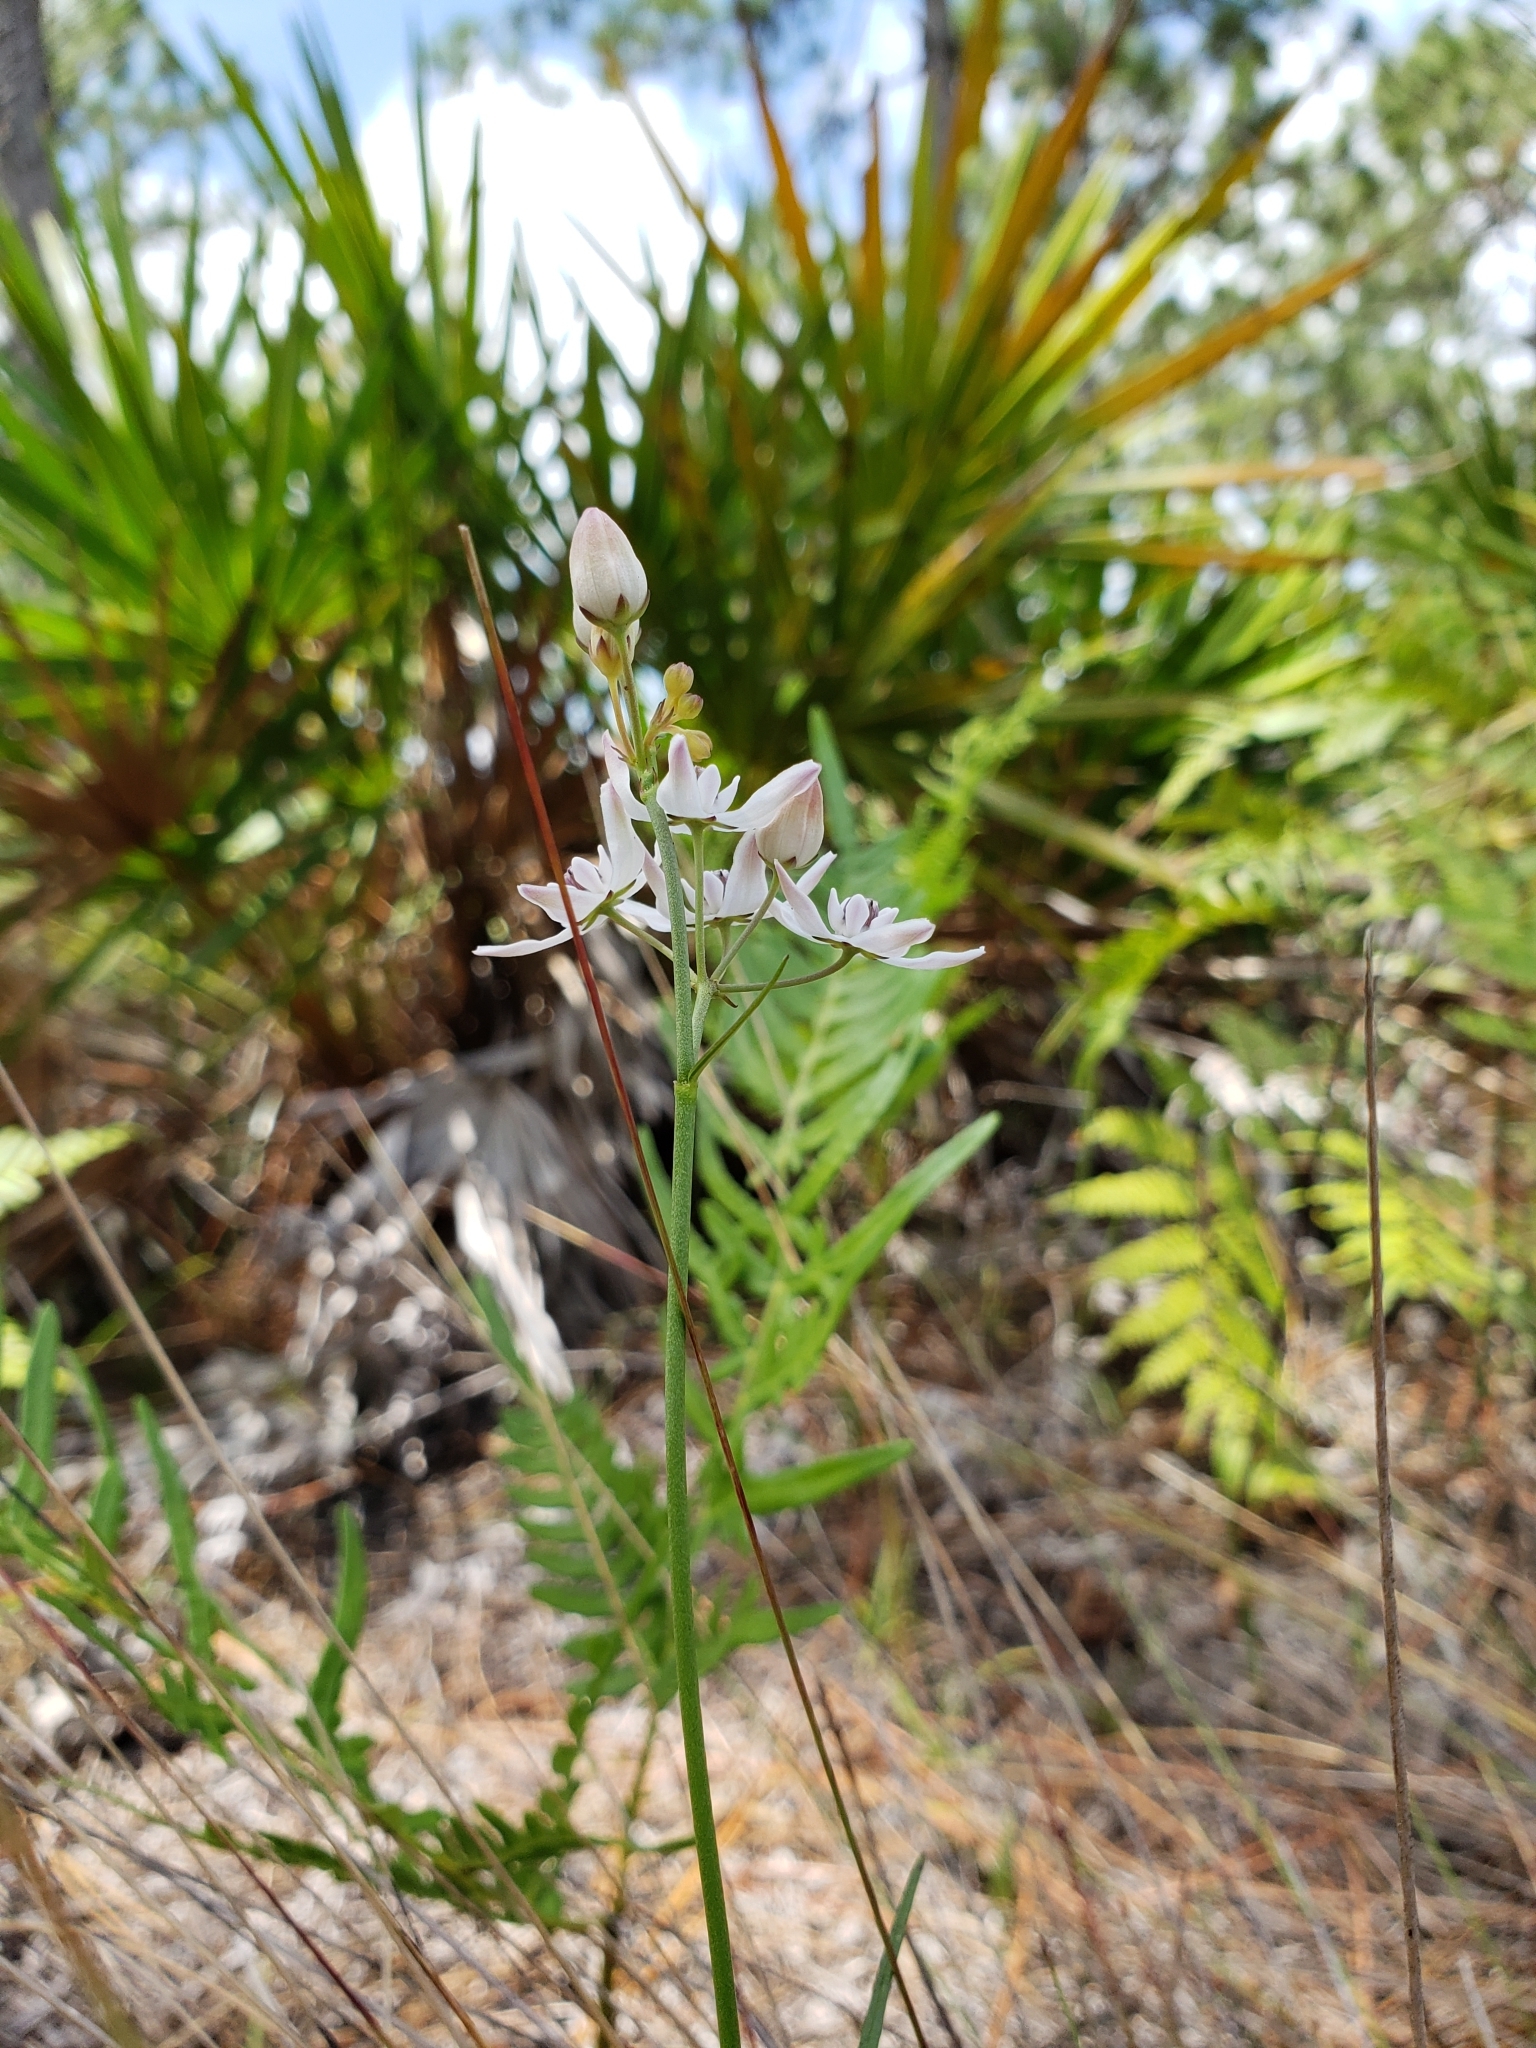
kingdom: Plantae
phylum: Tracheophyta
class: Magnoliopsida
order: Gentianales
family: Apocynaceae
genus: Asclepias
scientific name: Asclepias feayi
